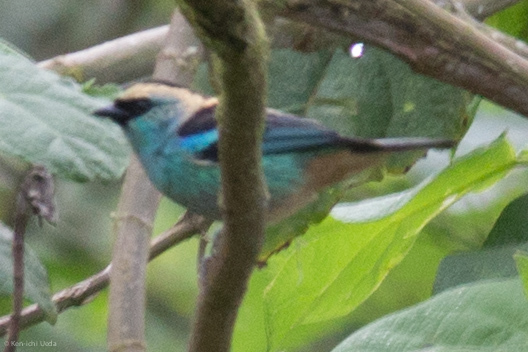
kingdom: Animalia
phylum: Chordata
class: Aves
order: Passeriformes
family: Thraupidae
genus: Tangara
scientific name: Tangara labradorides
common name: Metallic-green tanager
